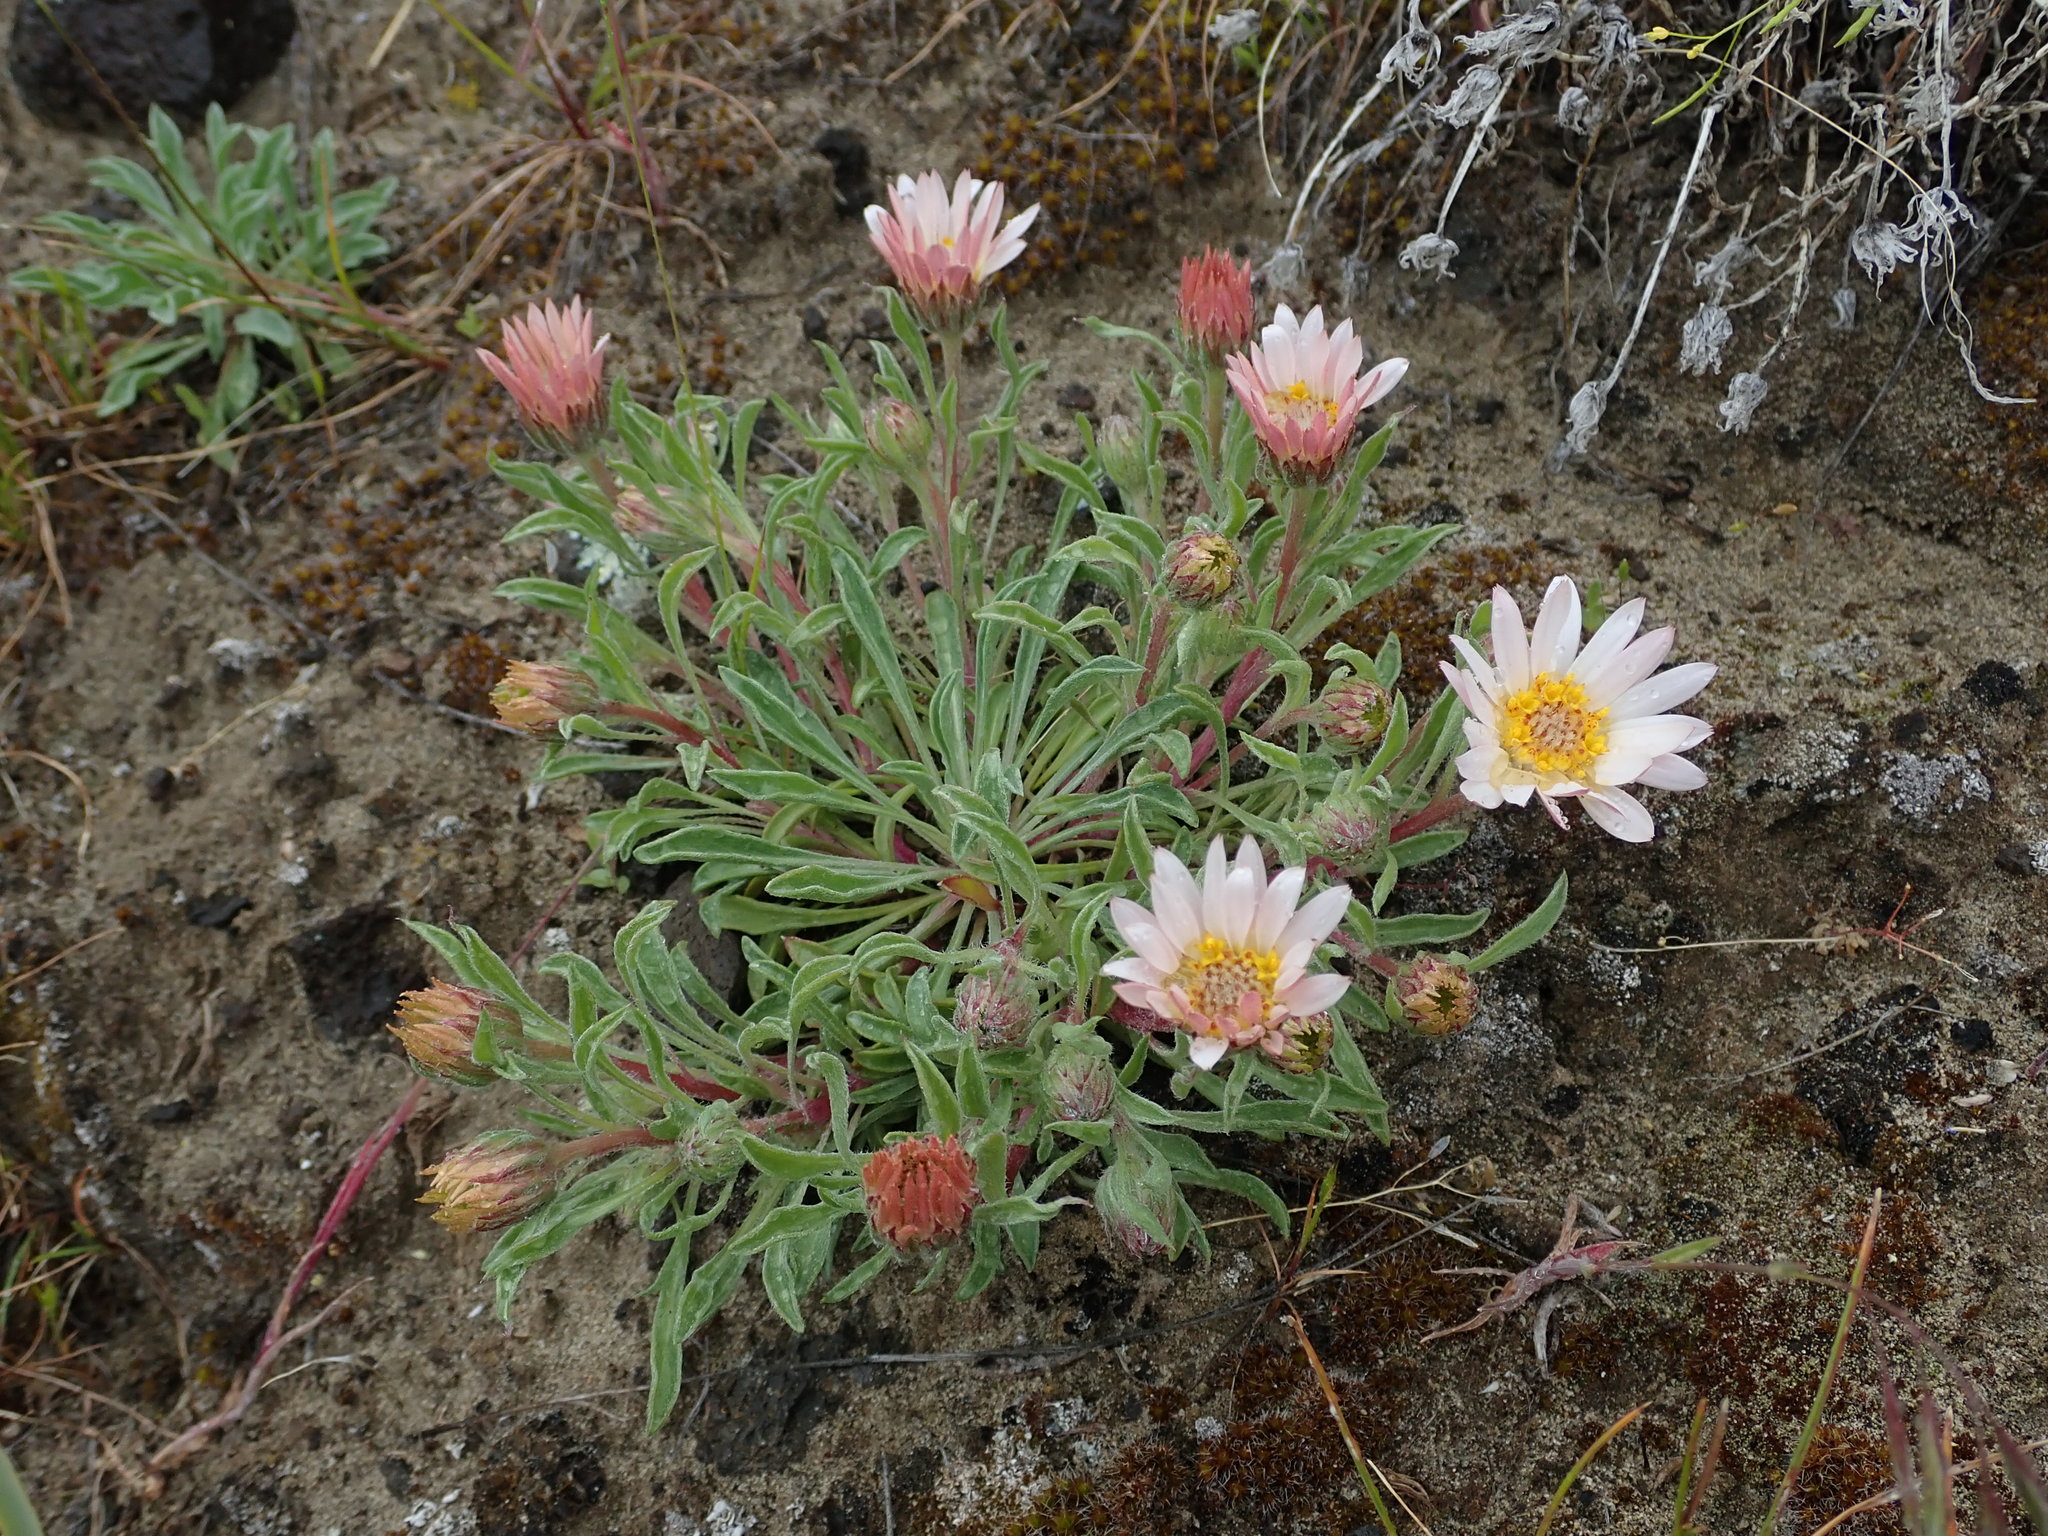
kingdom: Plantae
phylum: Tracheophyta
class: Magnoliopsida
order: Asterales
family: Asteraceae
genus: Townsendia
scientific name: Townsendia florifera
